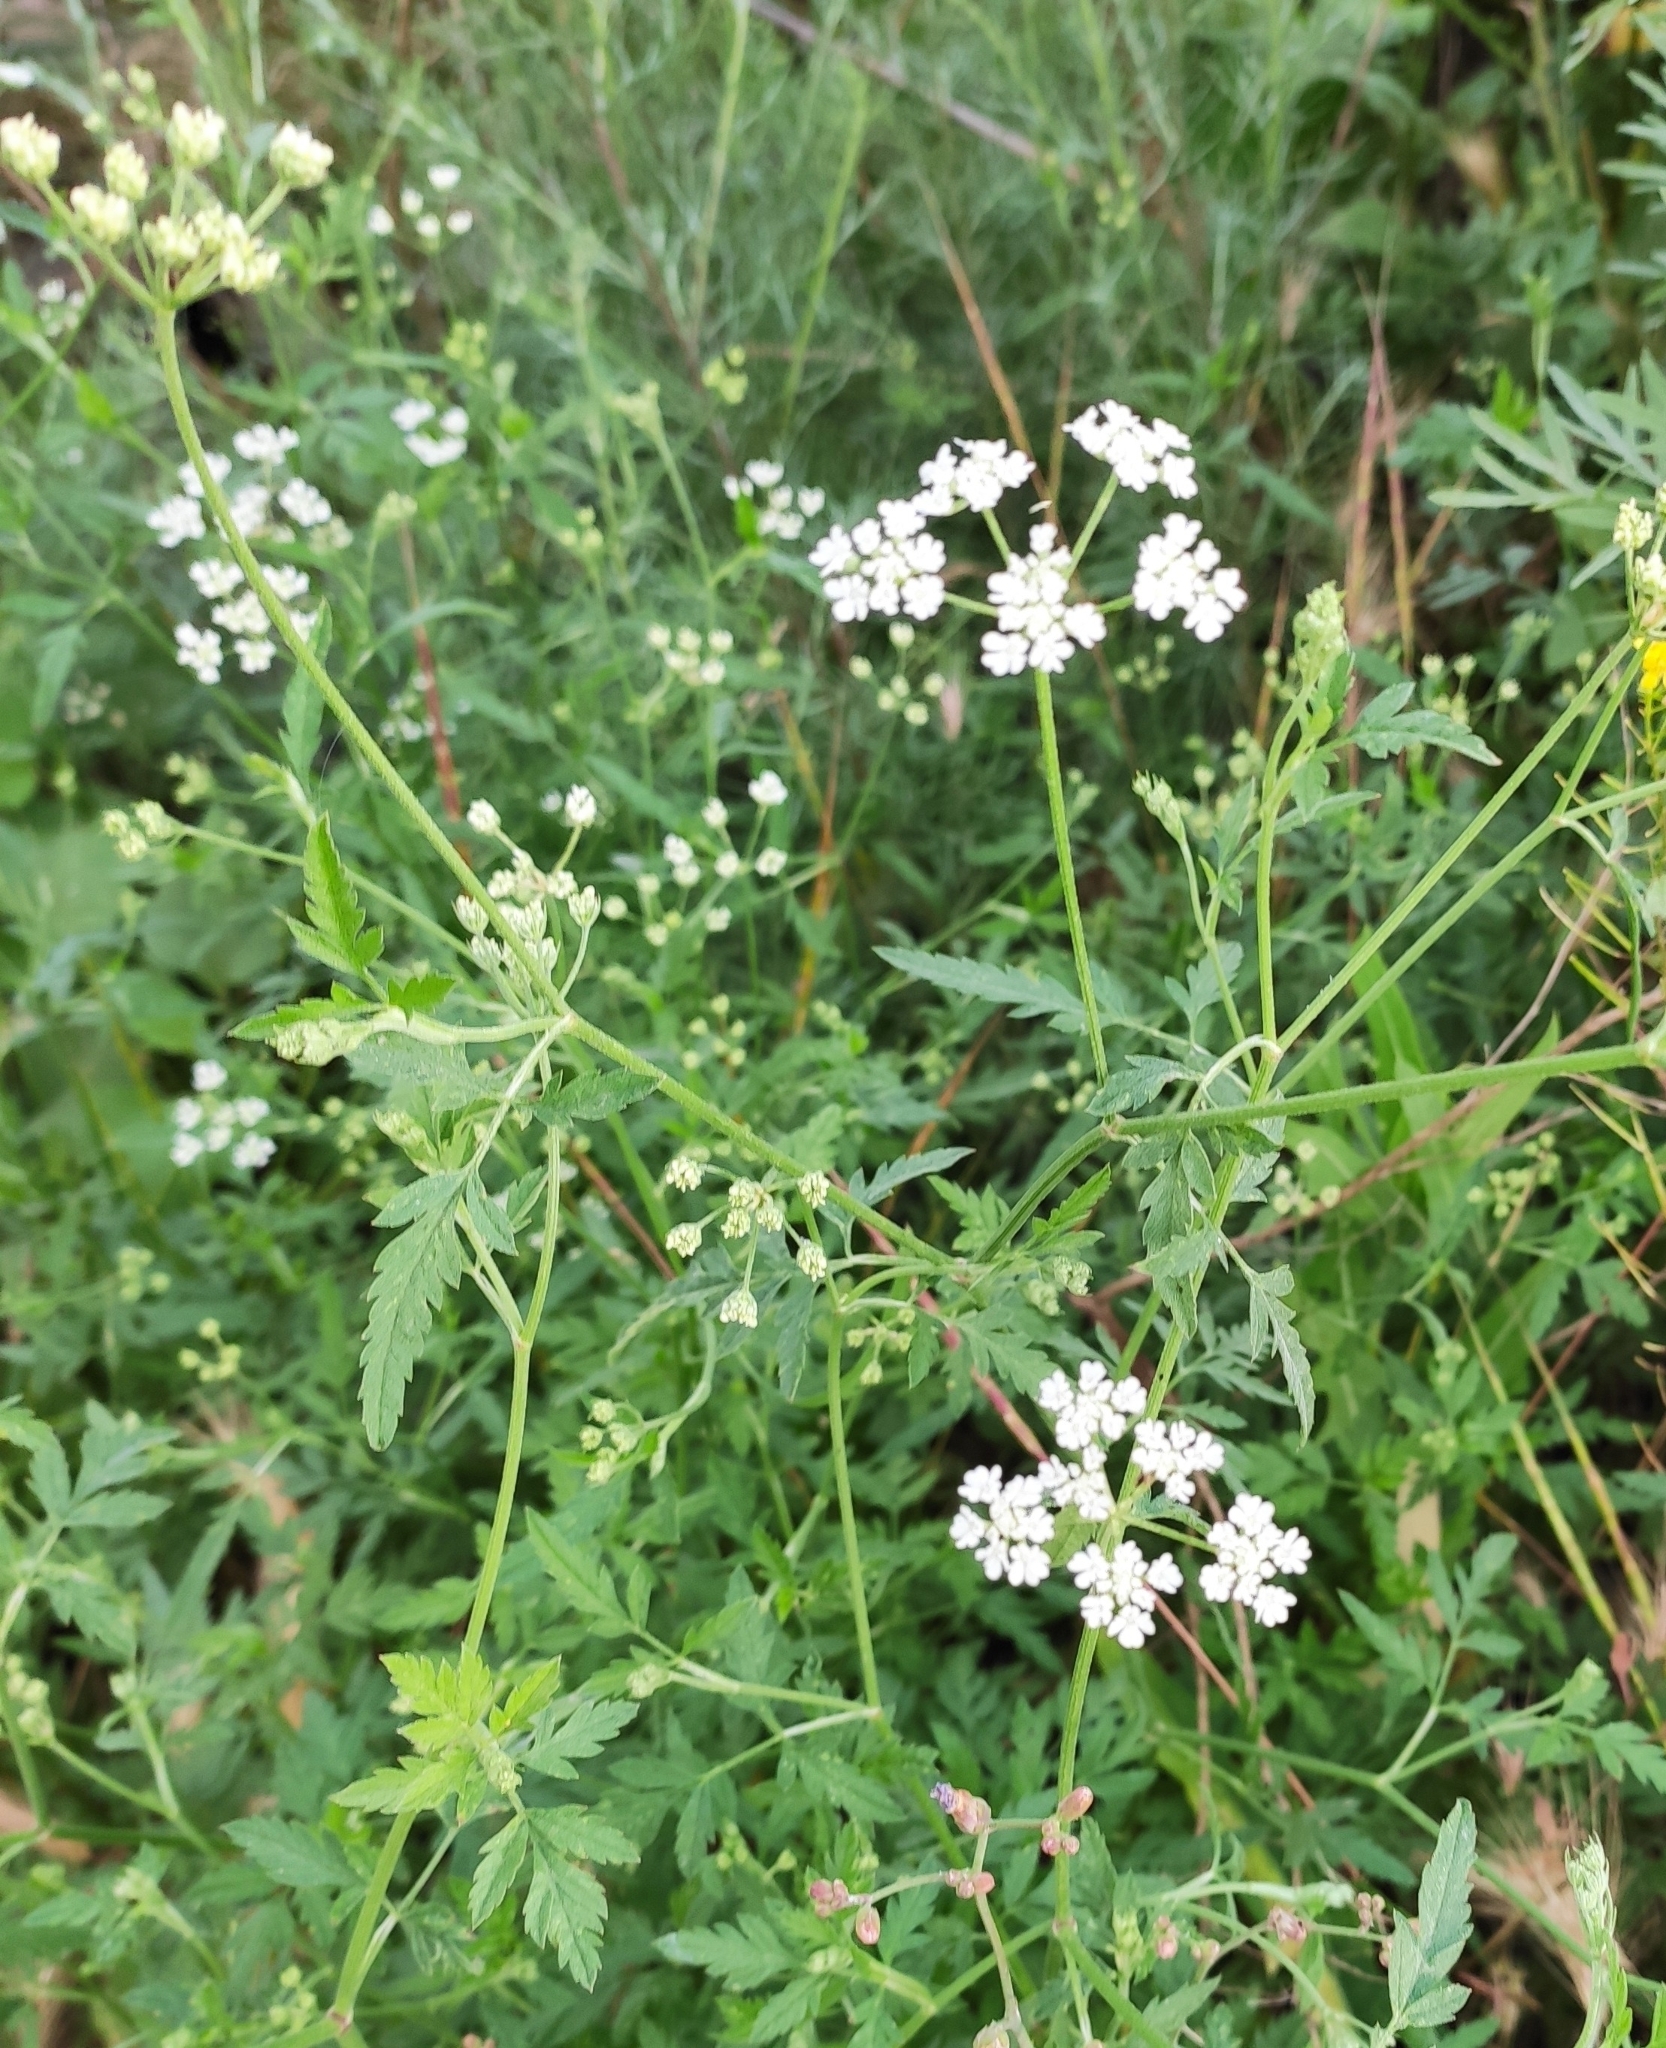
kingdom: Plantae
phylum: Tracheophyta
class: Magnoliopsida
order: Apiales
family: Apiaceae
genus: Torilis
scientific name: Torilis arvensis
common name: Spreading hedge-parsley
